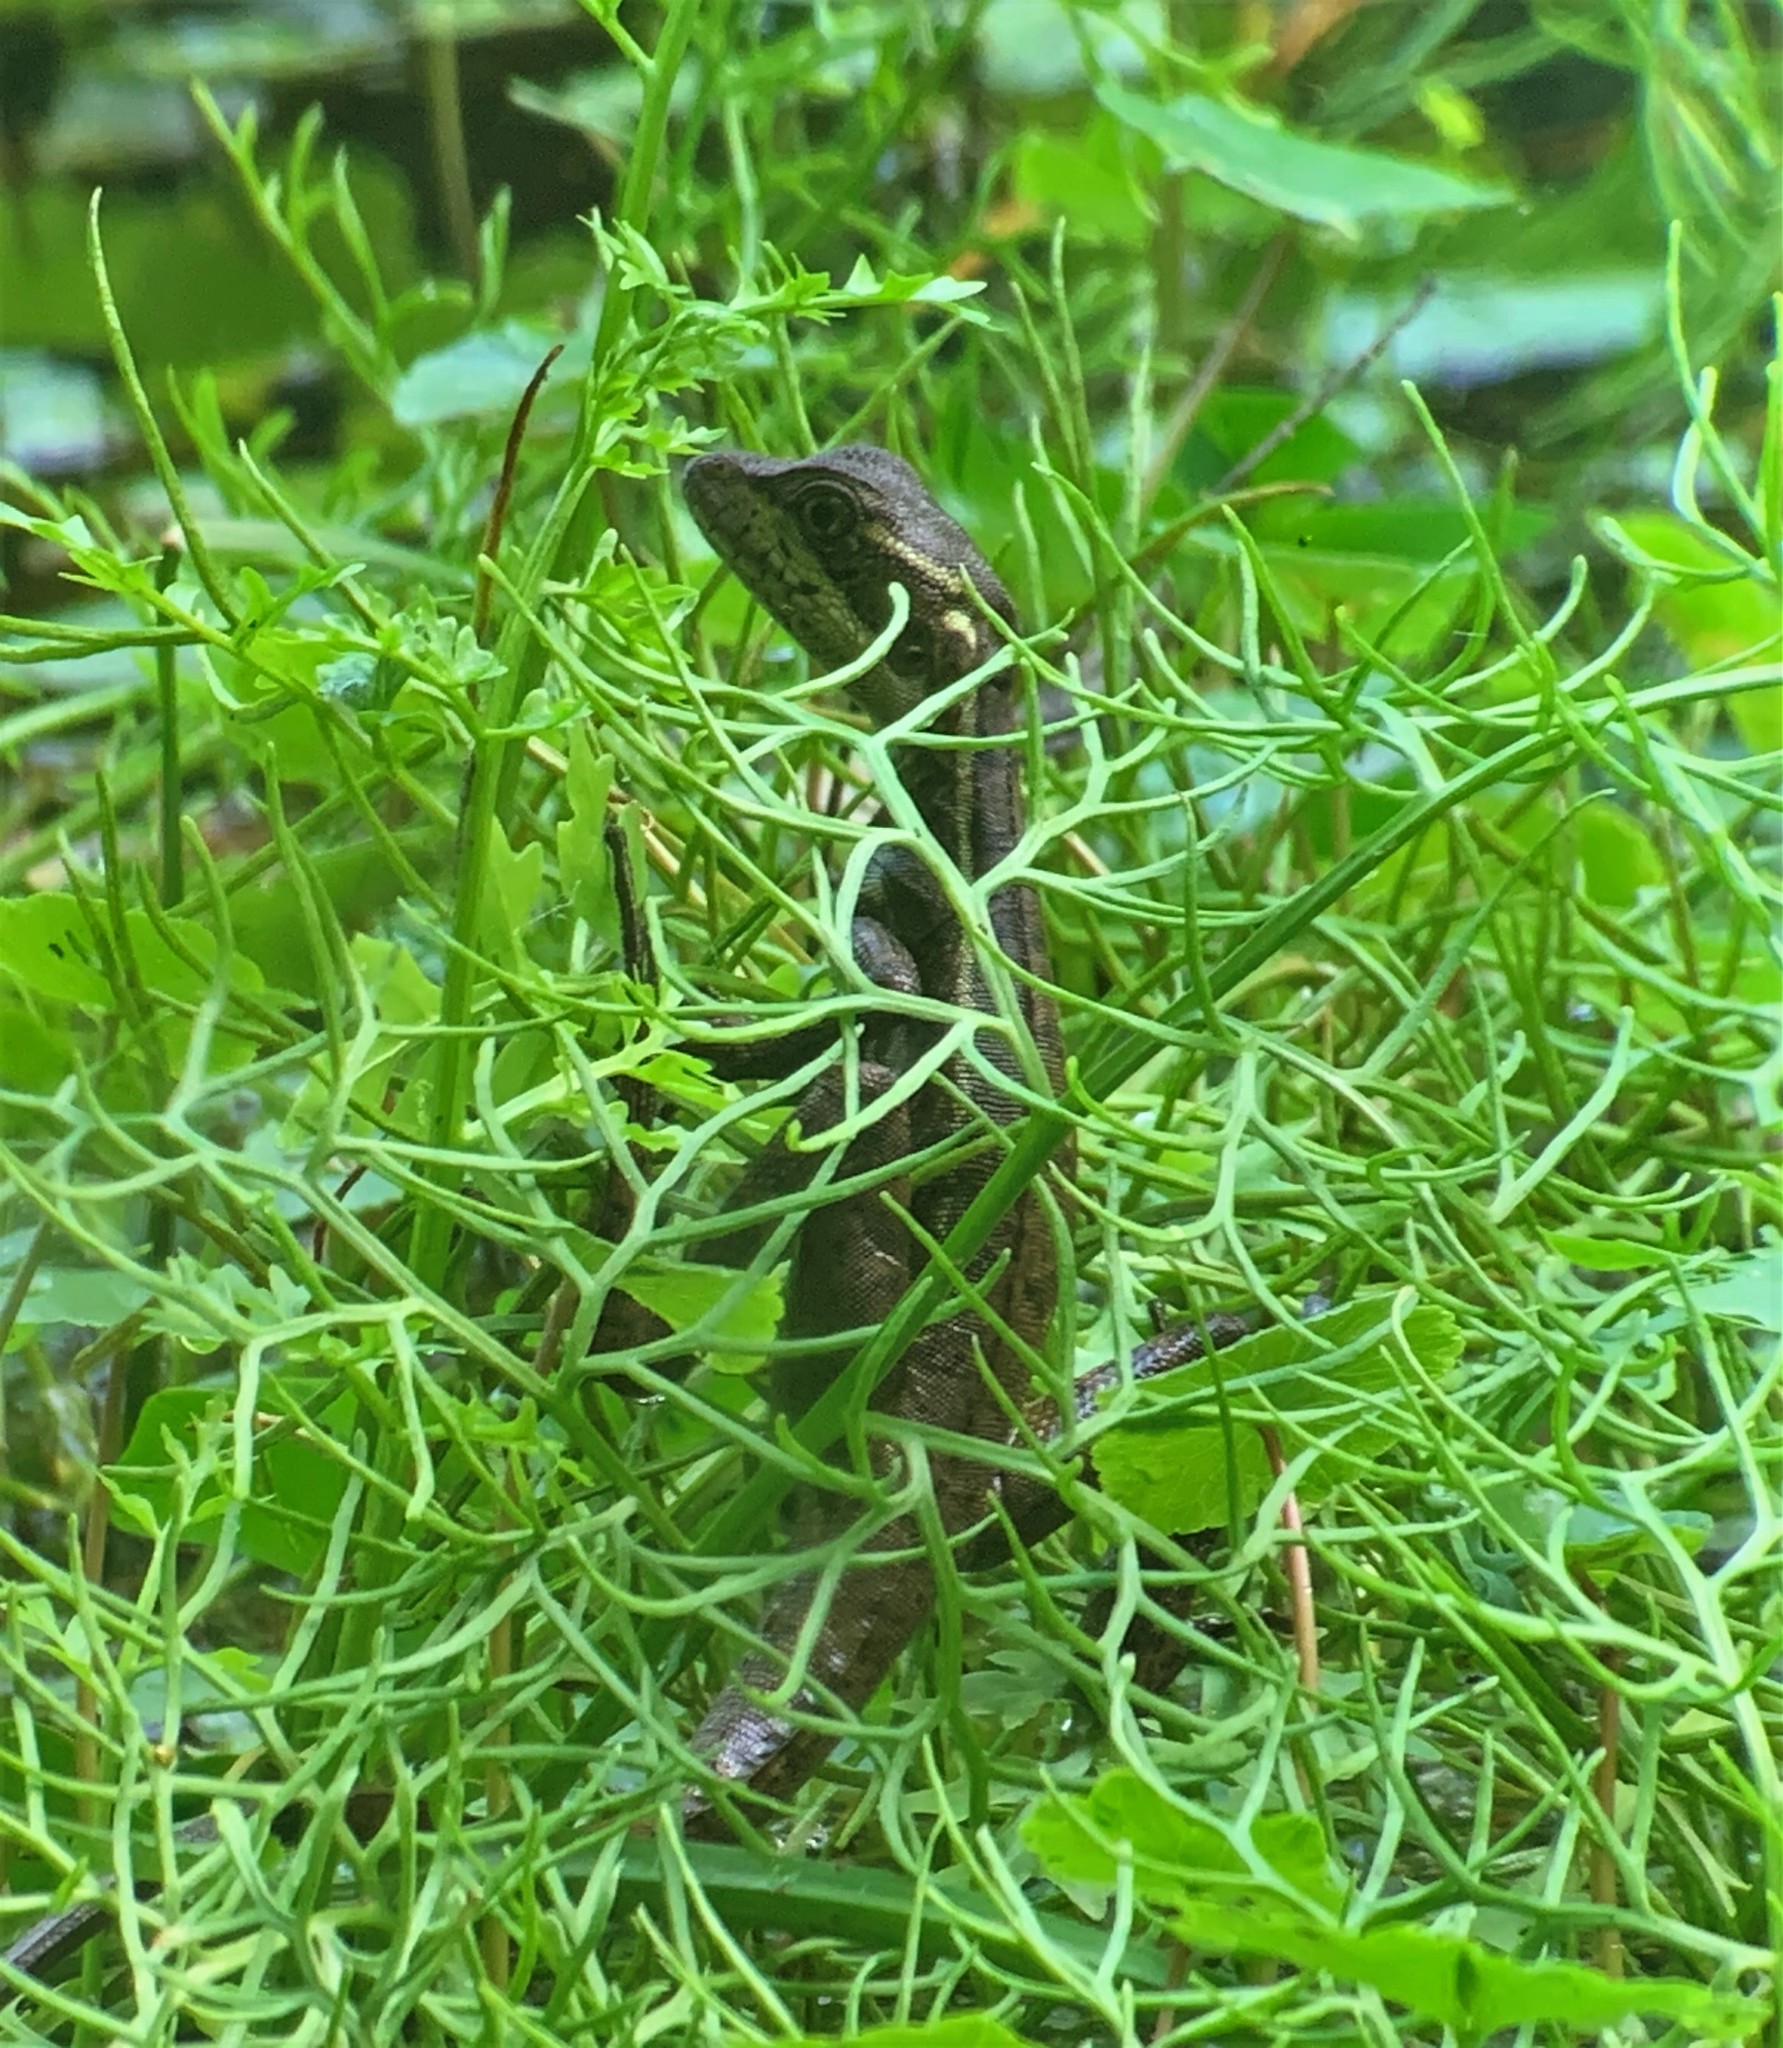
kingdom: Animalia
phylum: Chordata
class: Squamata
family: Corytophanidae
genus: Basiliscus
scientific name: Basiliscus basiliscus
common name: Common basilisk
